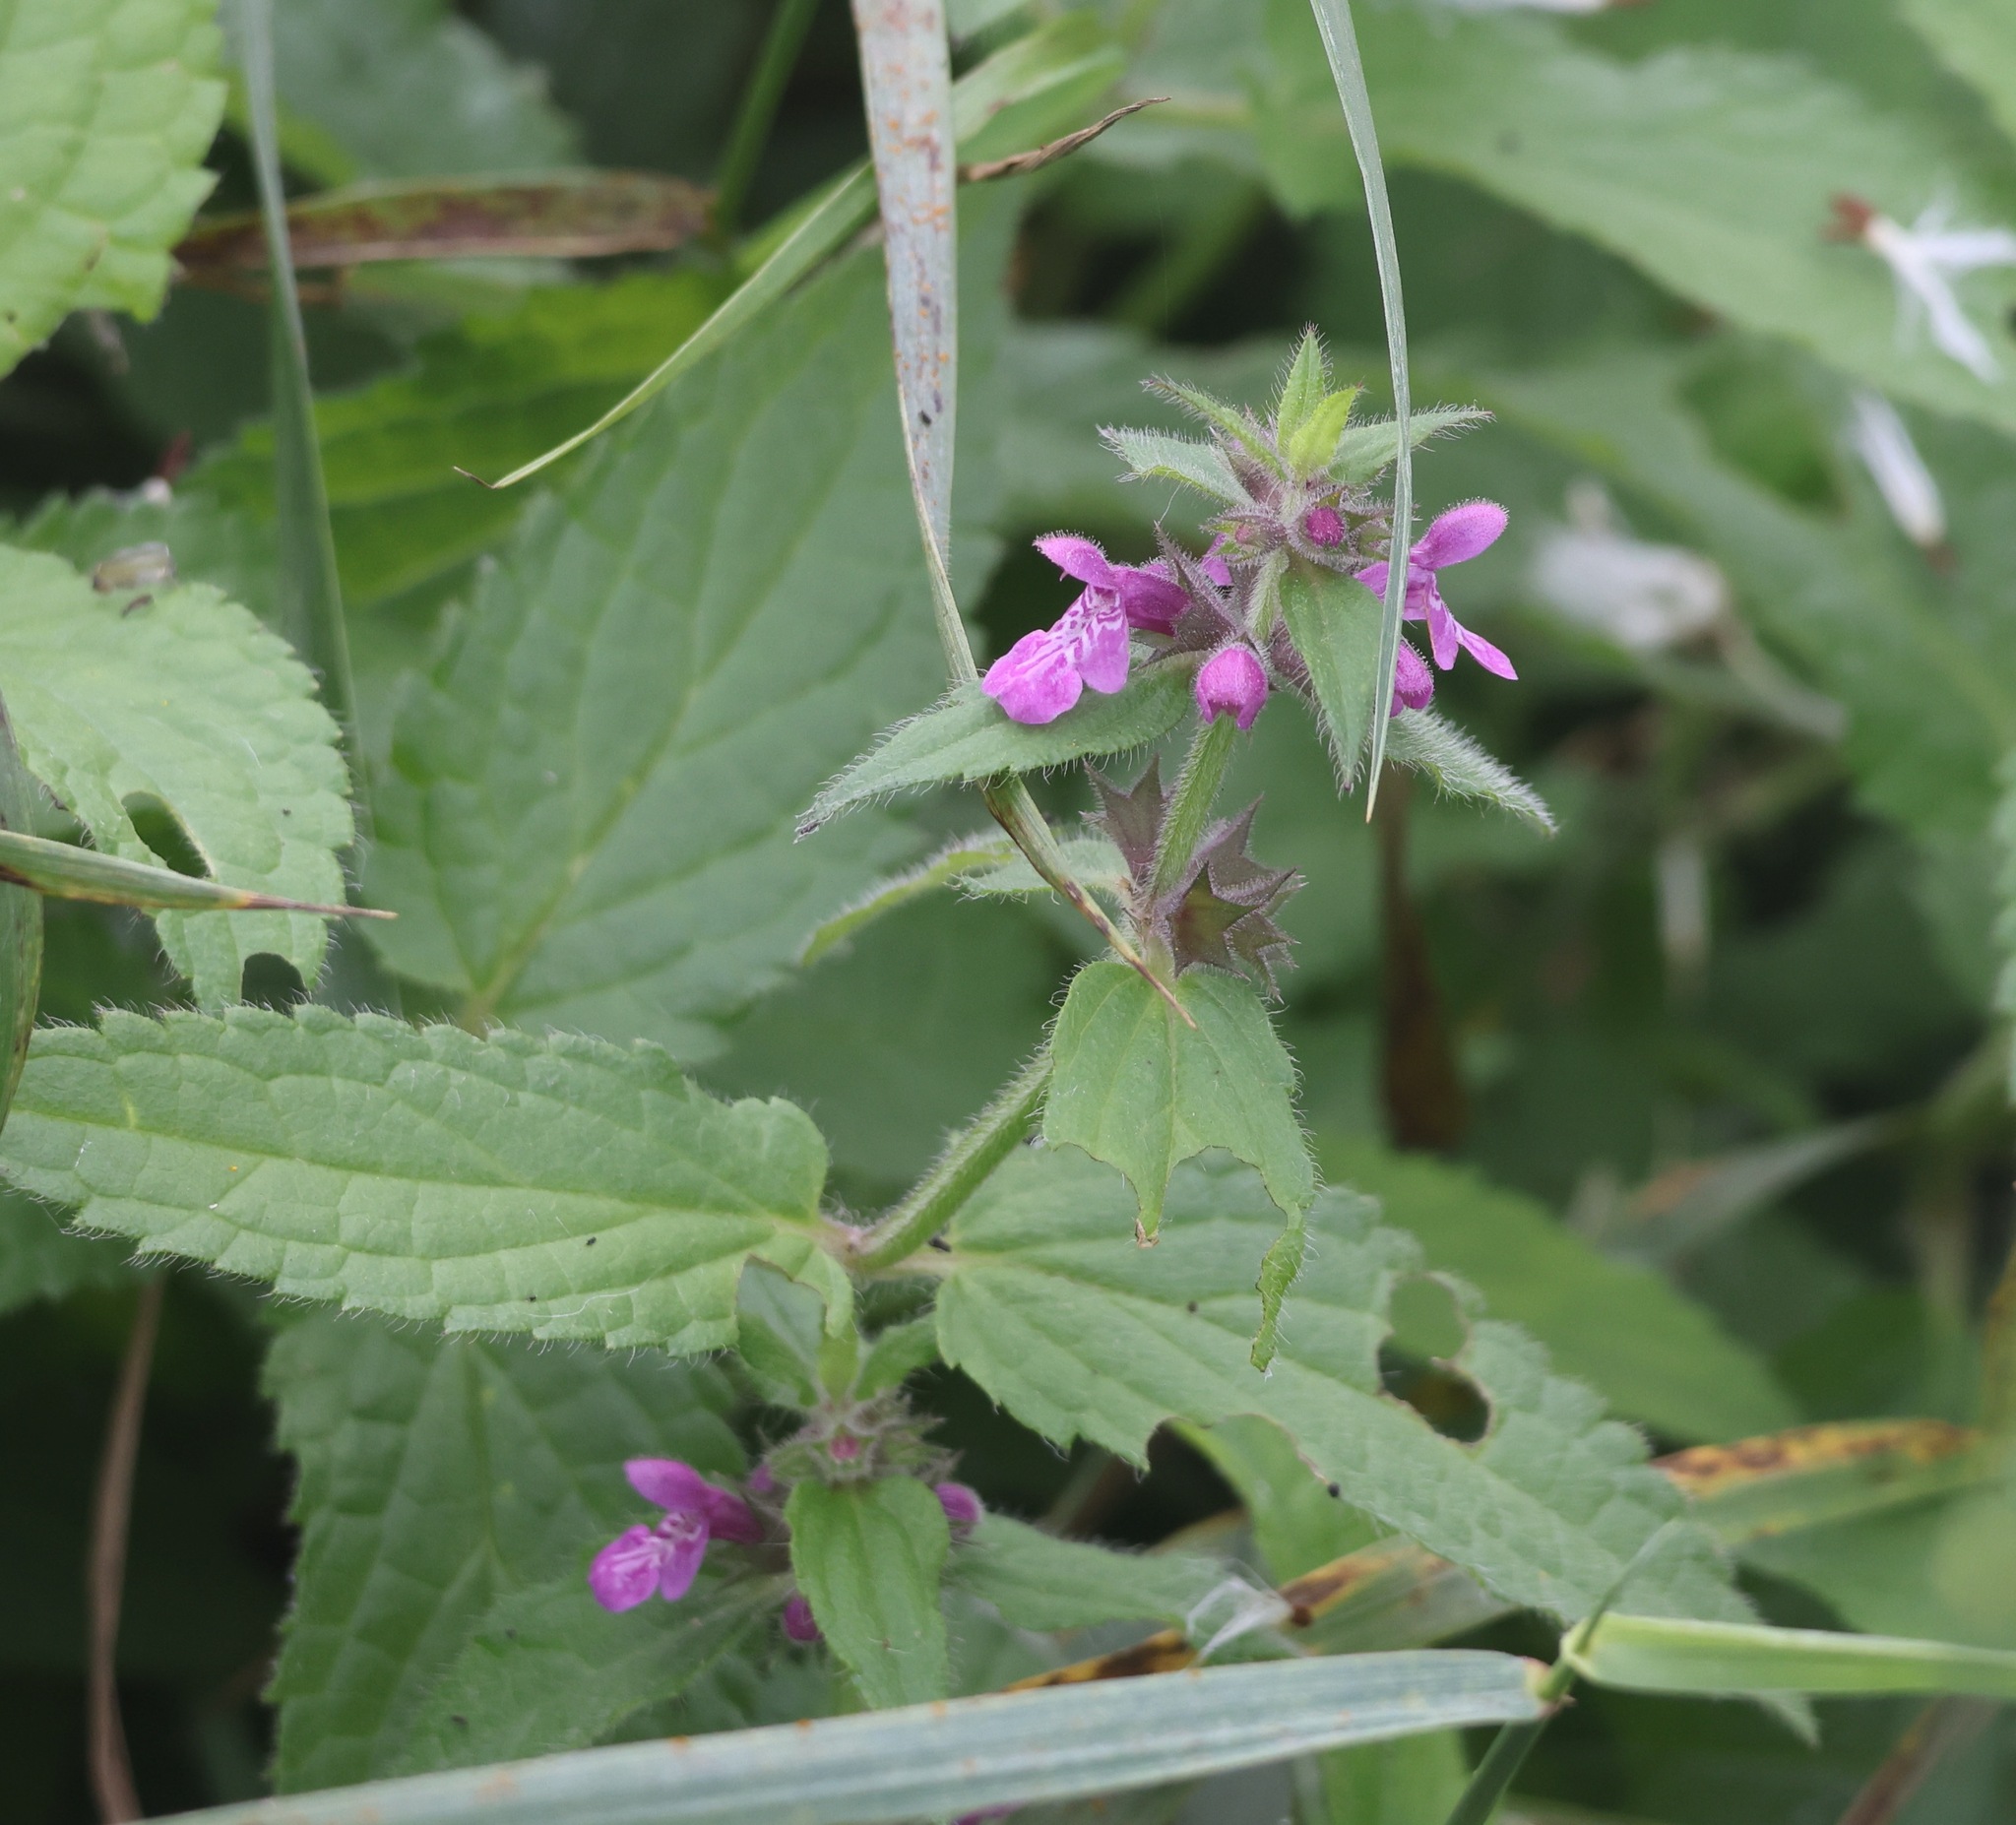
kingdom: Plantae
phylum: Tracheophyta
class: Magnoliopsida
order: Lamiales
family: Lamiaceae
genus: Stachys
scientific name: Stachys palustris
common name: Marsh woundwort
